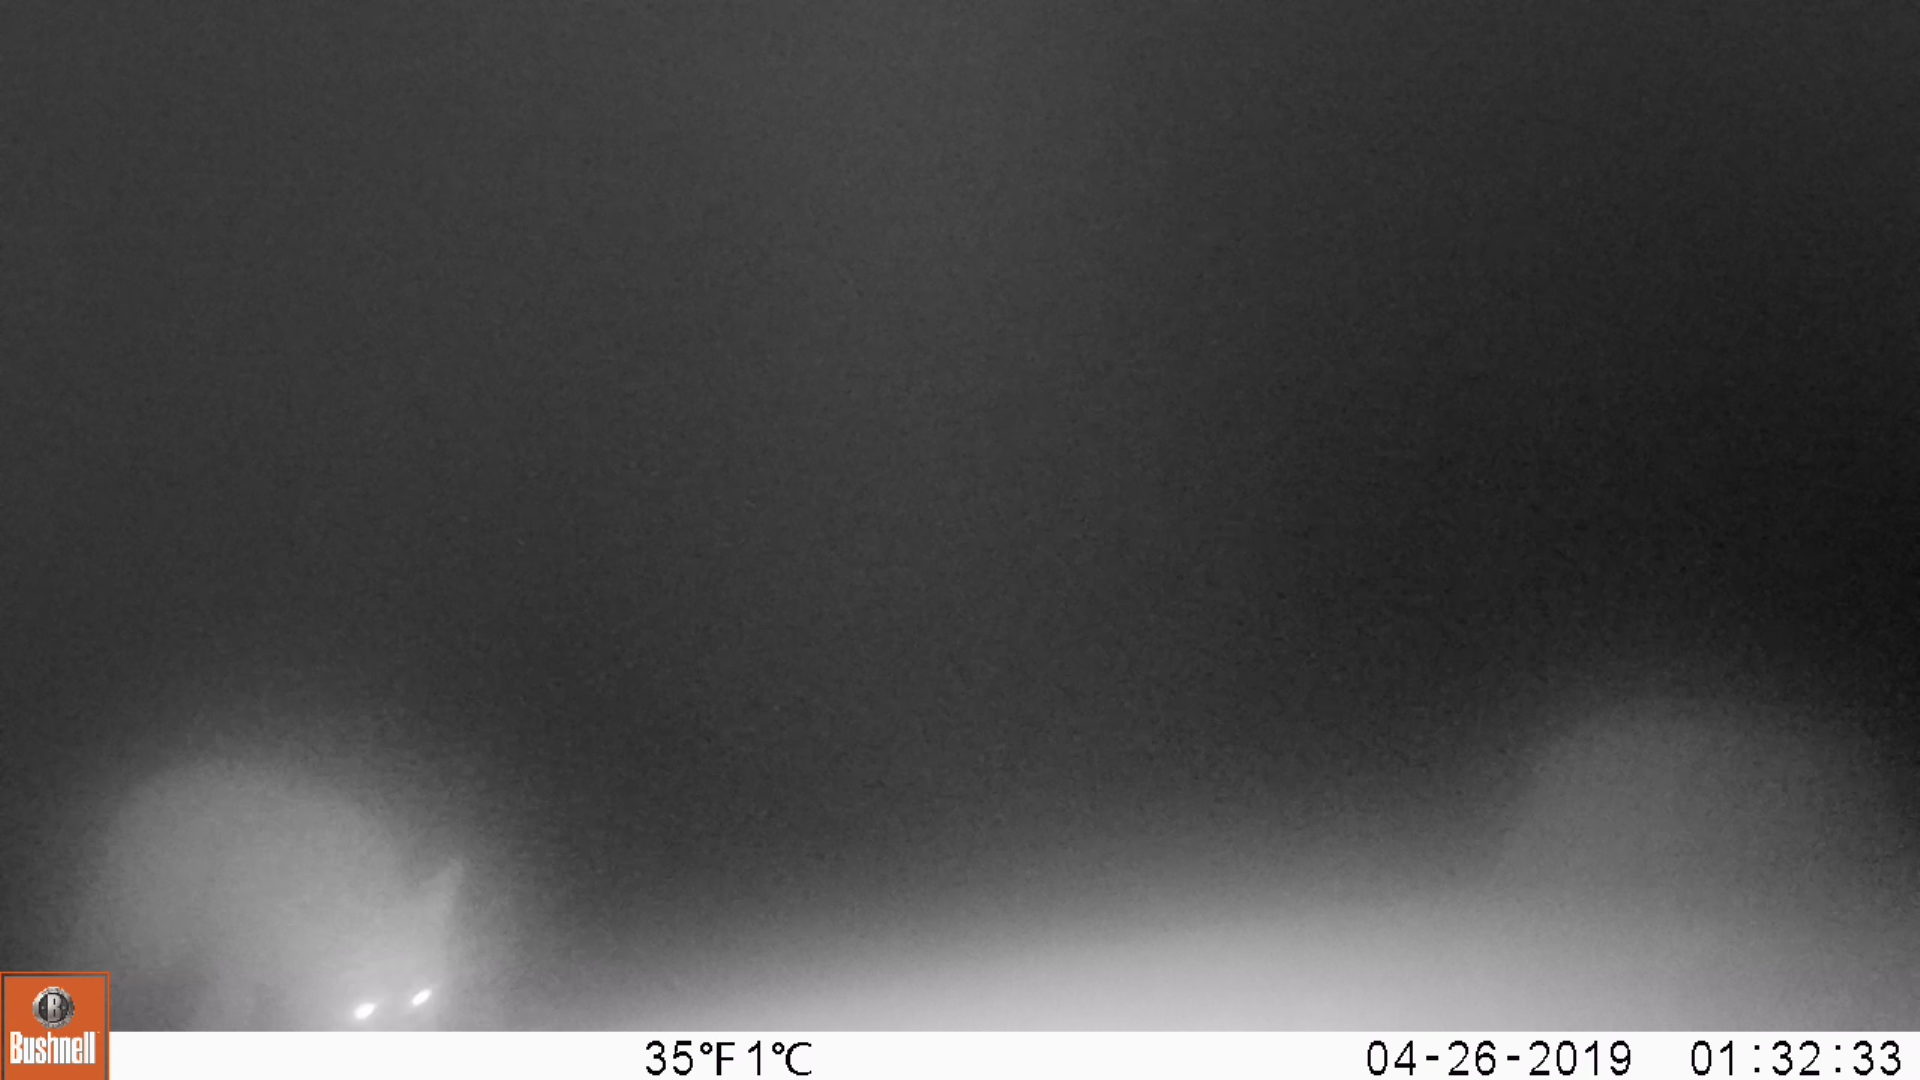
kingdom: Animalia
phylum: Chordata
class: Mammalia
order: Carnivora
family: Canidae
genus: Vulpes
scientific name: Vulpes vulpes
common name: Red fox
